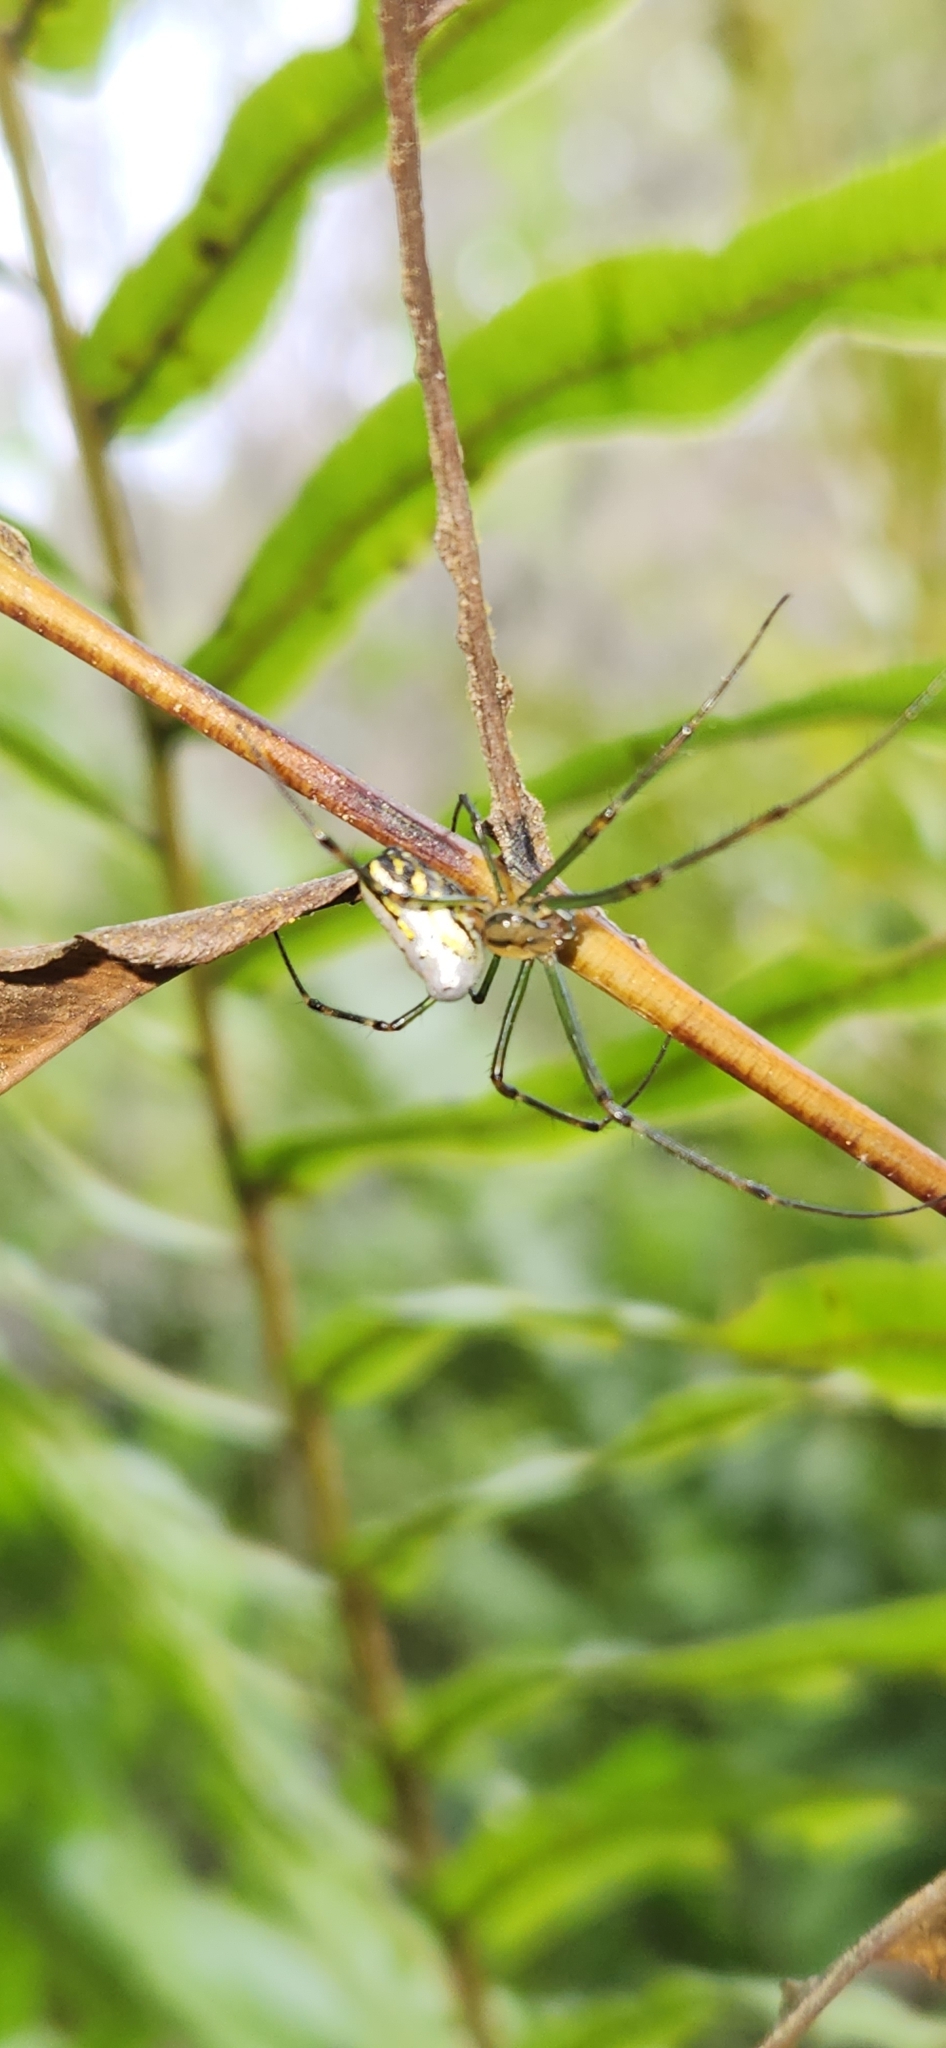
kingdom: Animalia
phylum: Arthropoda
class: Arachnida
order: Araneae
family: Tetragnathidae
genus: Leucauge
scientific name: Leucauge dromedaria
